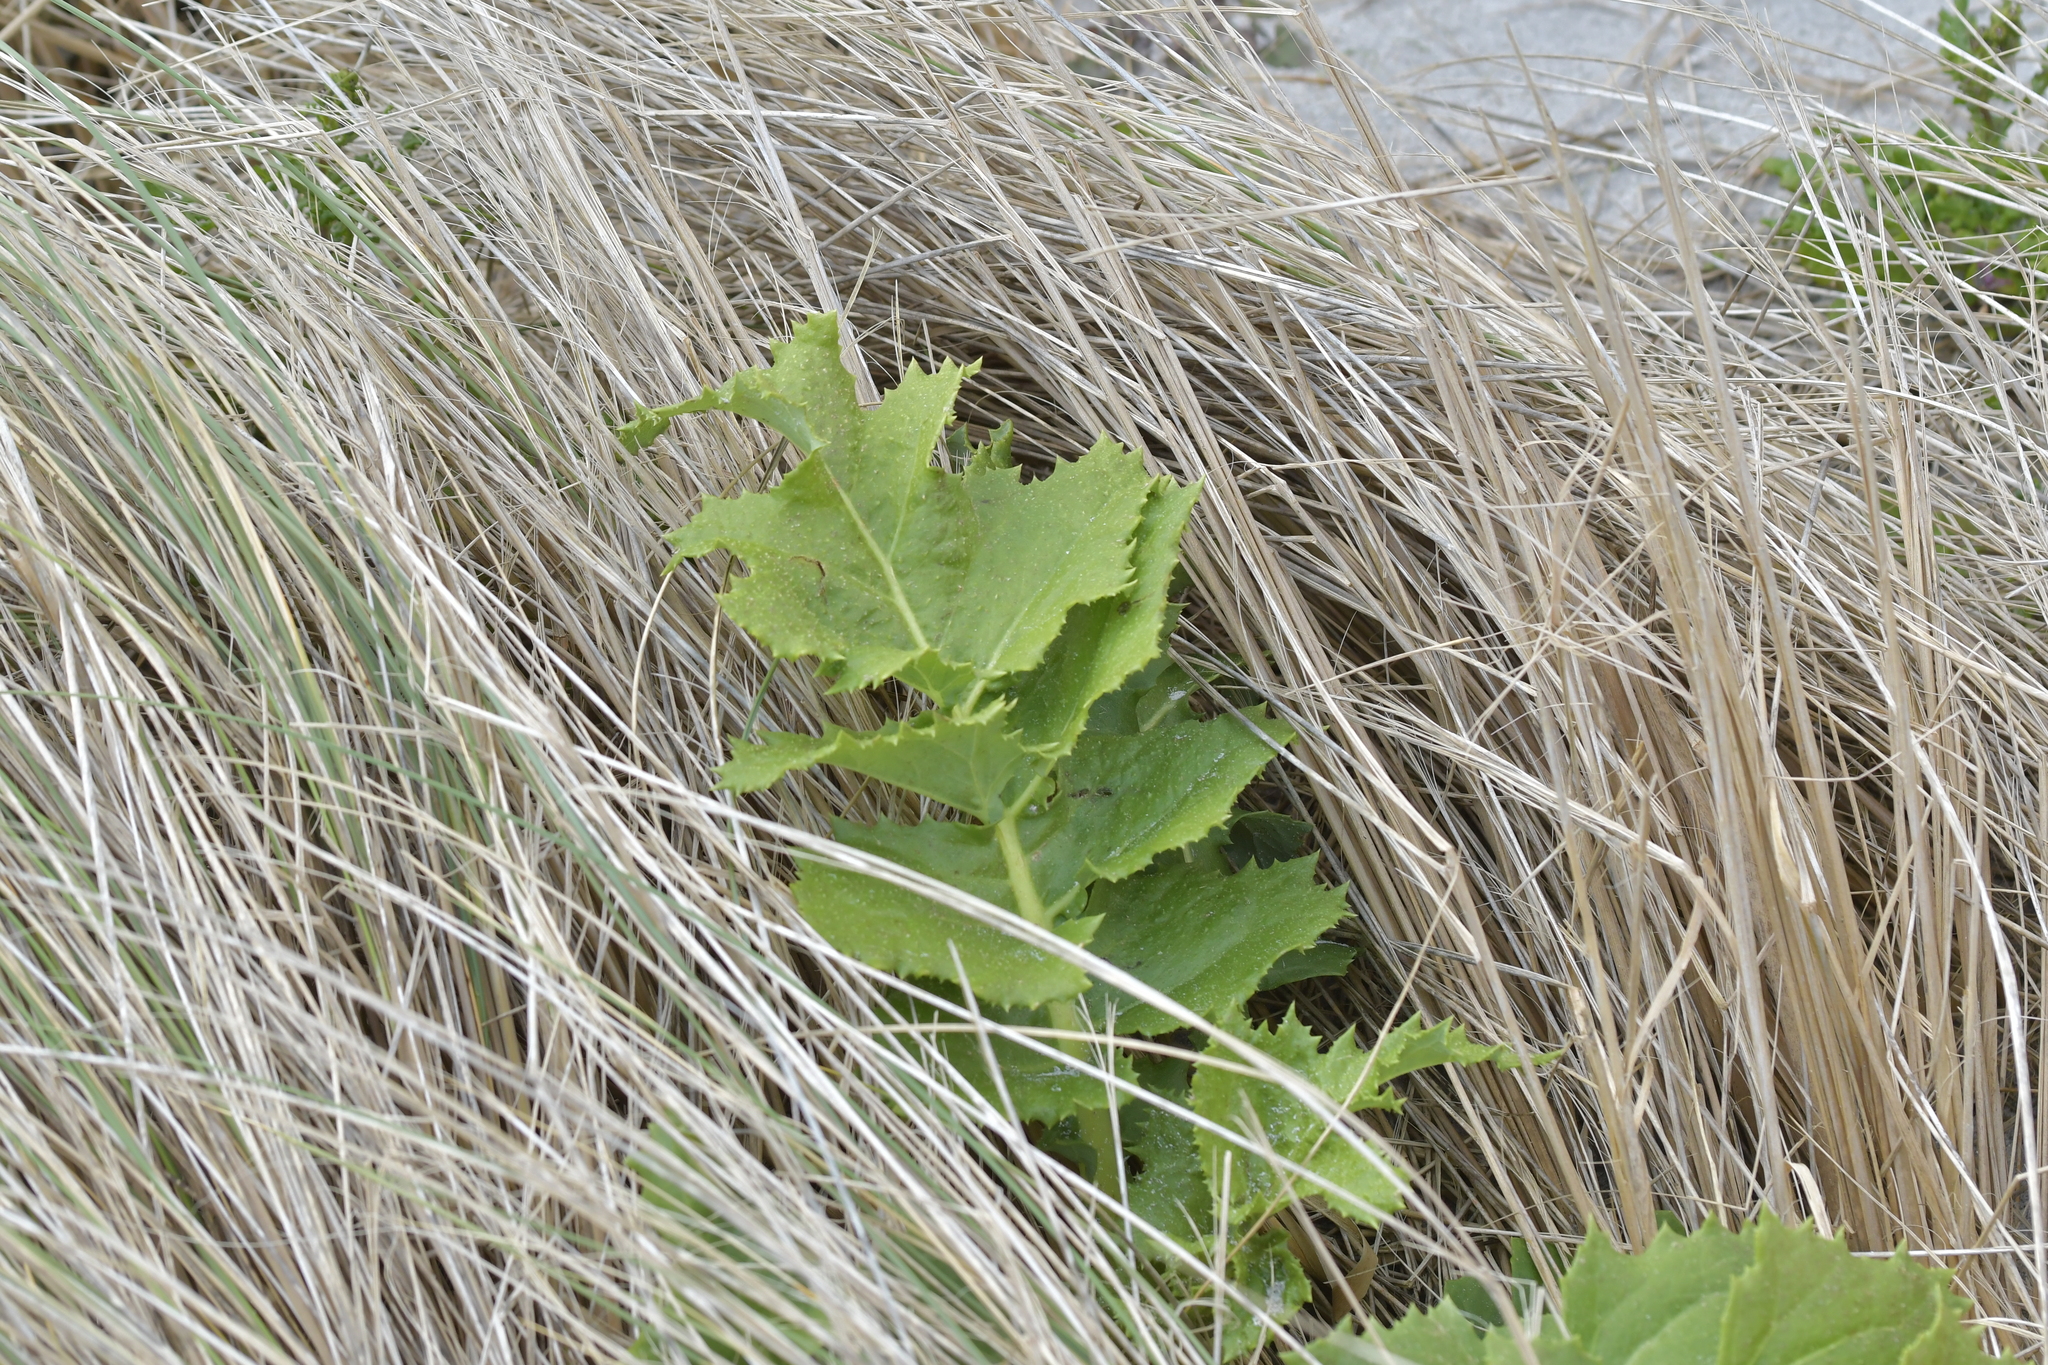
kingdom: Plantae
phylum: Tracheophyta
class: Magnoliopsida
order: Asterales
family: Asteraceae
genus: Sonchus
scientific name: Sonchus grandifolius
